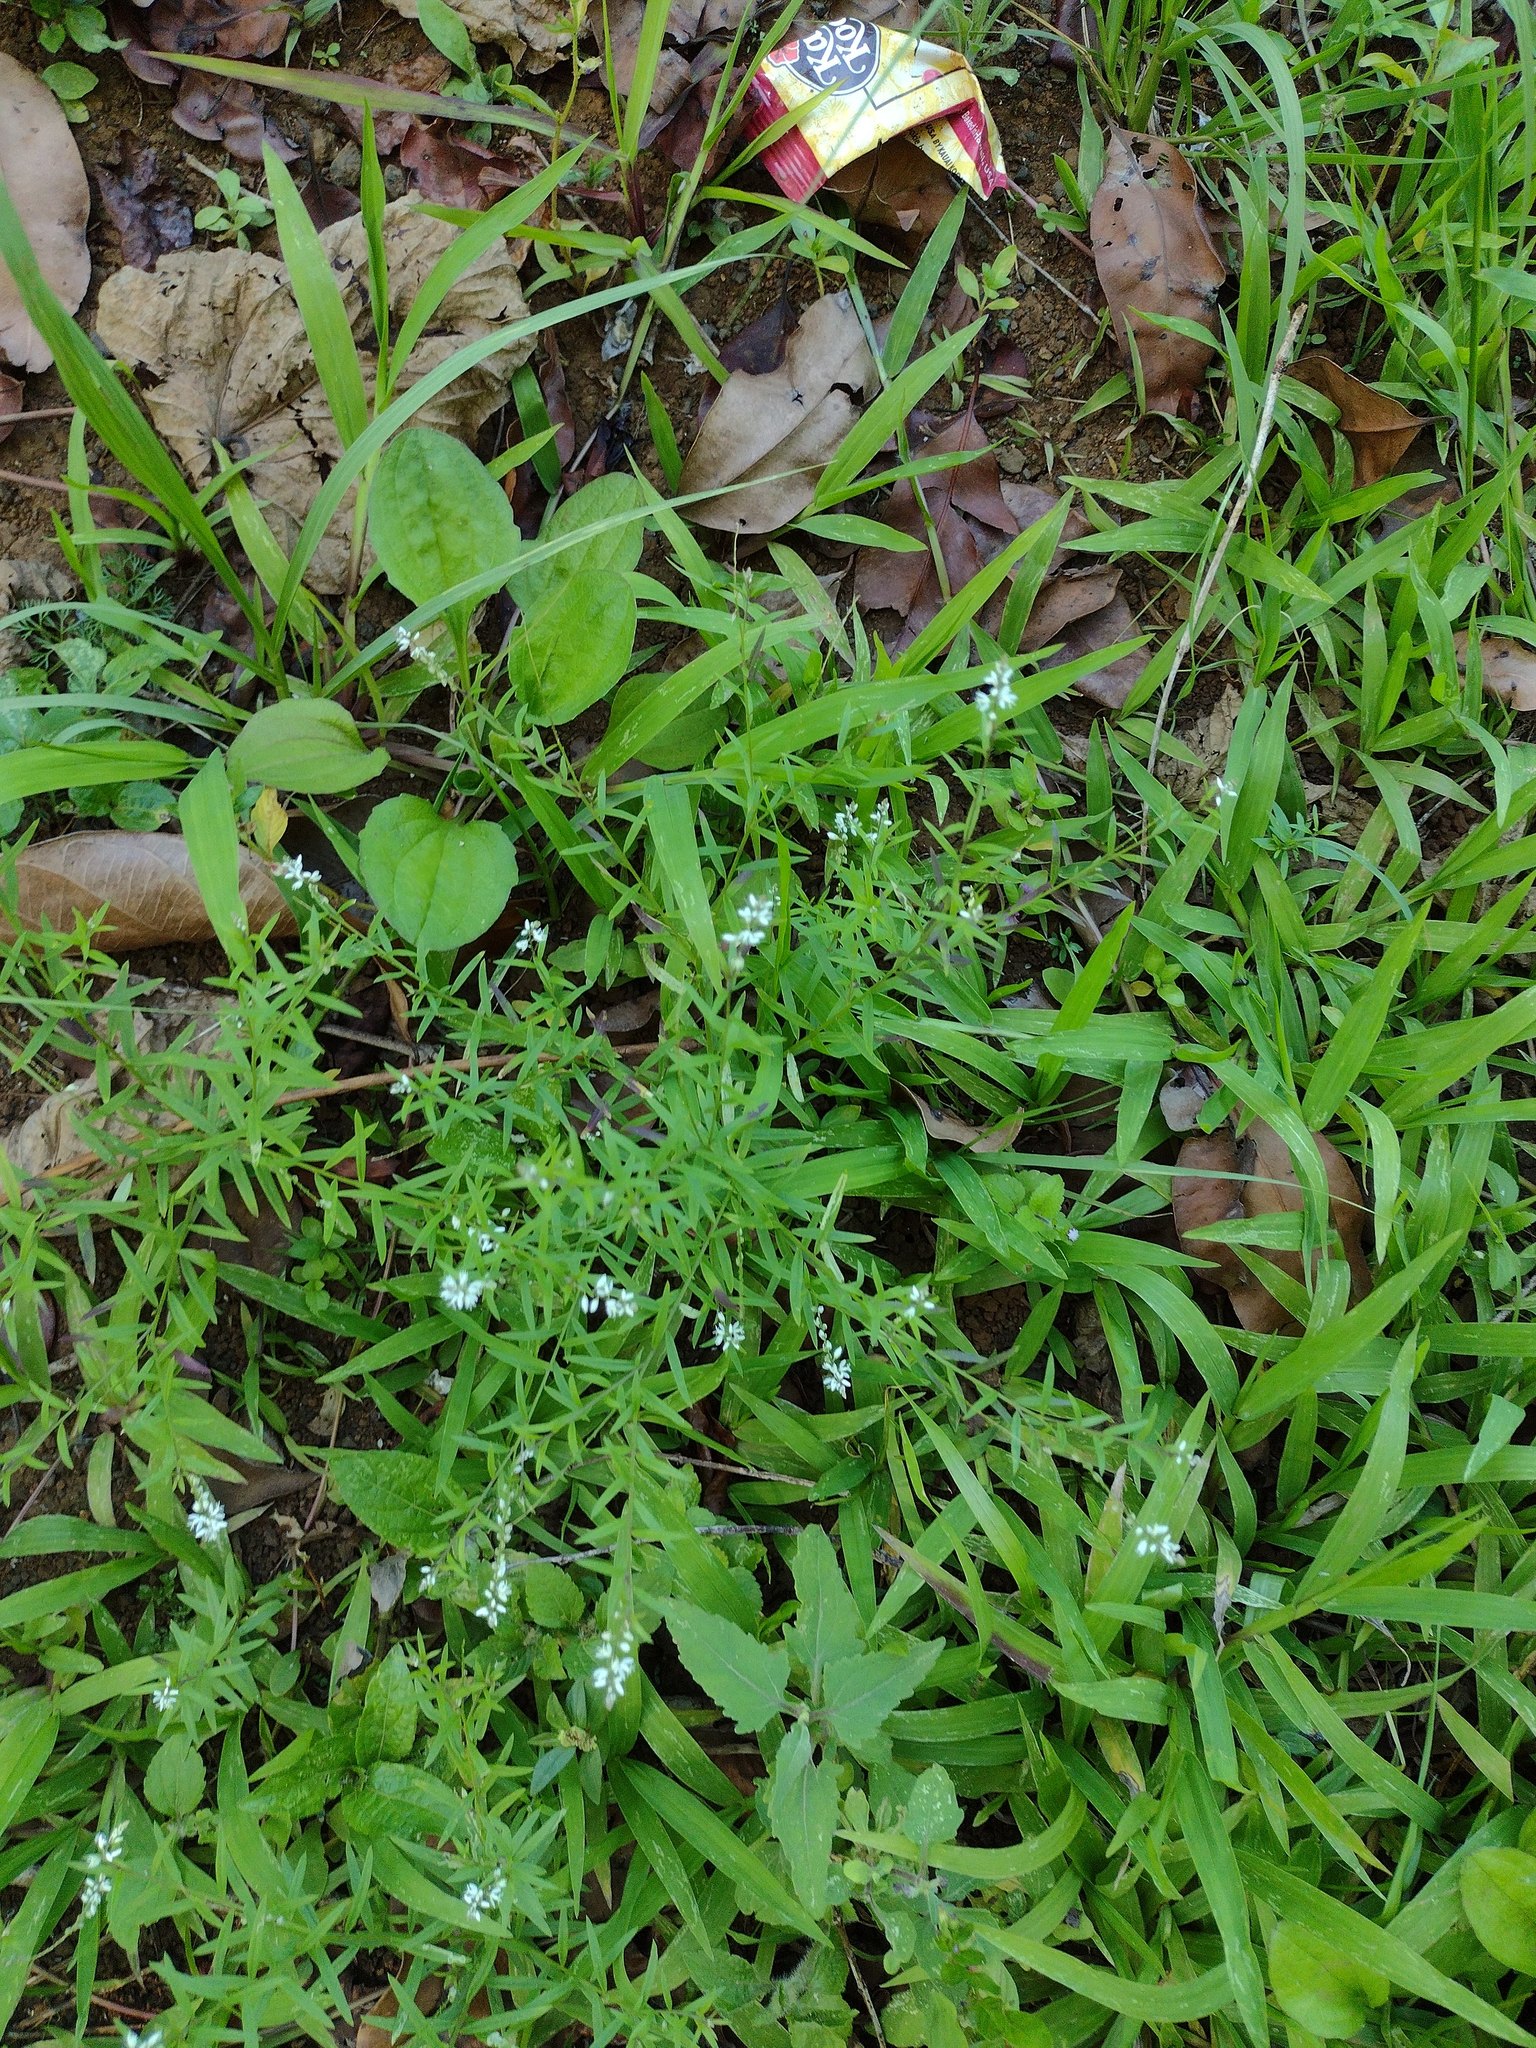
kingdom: Plantae
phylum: Tracheophyta
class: Magnoliopsida
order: Fabales
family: Polygalaceae
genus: Polygala
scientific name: Polygala paniculata
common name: Orosne
